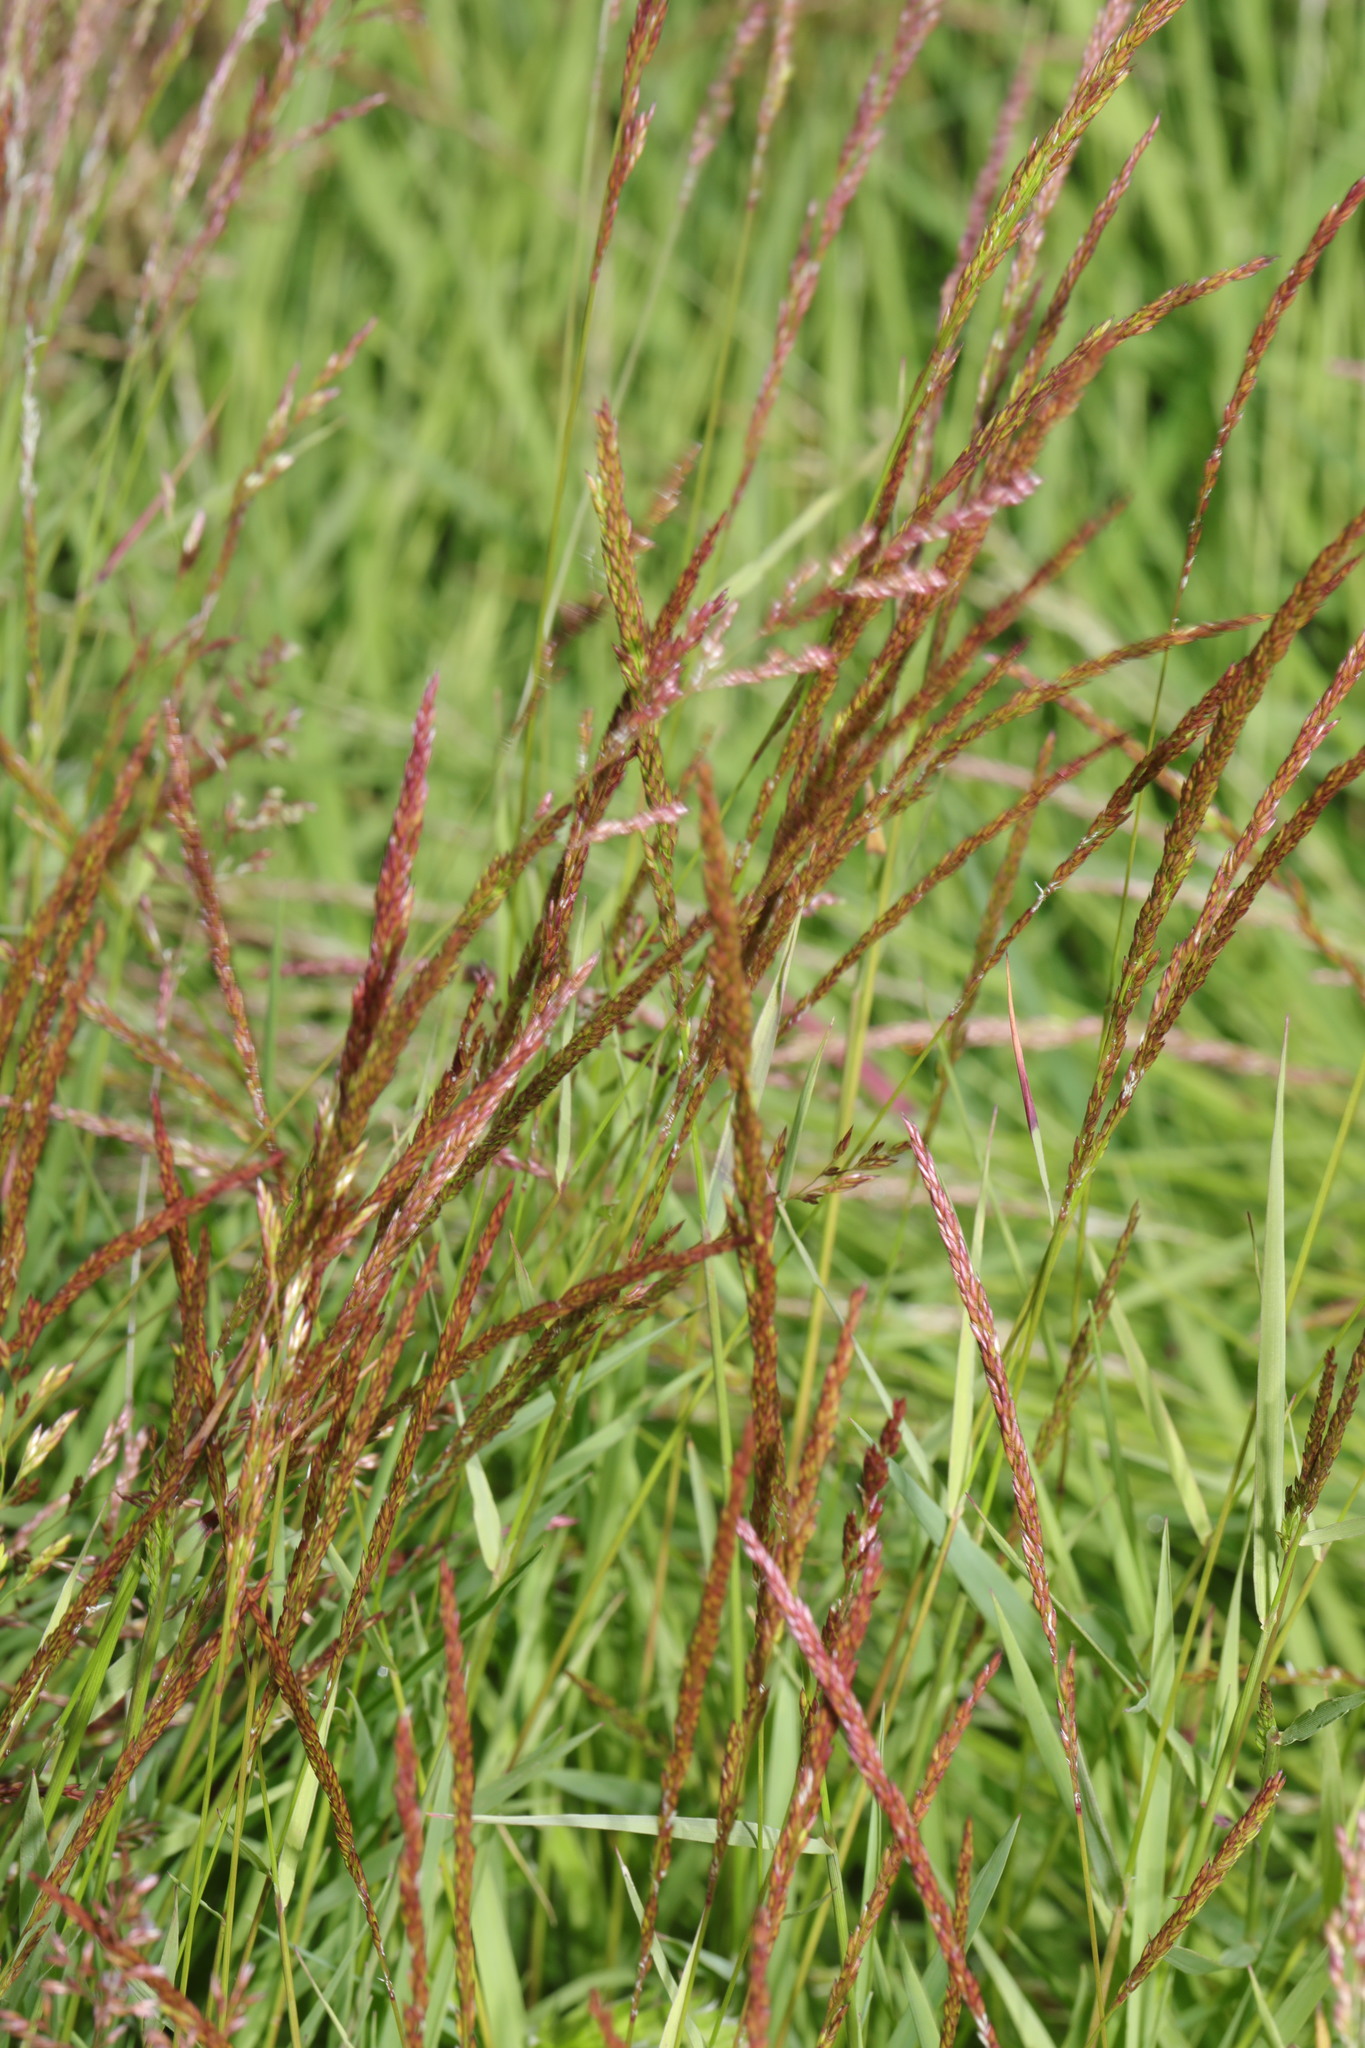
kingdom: Plantae
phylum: Tracheophyta
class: Liliopsida
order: Poales
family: Poaceae
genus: Agrostis
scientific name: Agrostis stolonifera
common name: Creeping bentgrass
